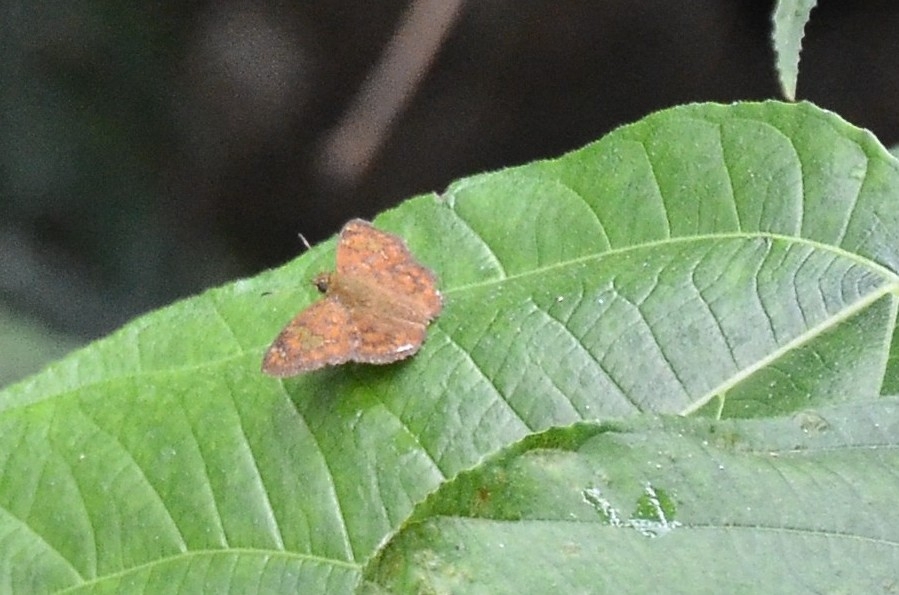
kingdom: Animalia
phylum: Arthropoda
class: Insecta
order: Lepidoptera
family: Hesperiidae
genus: Pseudocoladenia
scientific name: Pseudocoladenia dan
